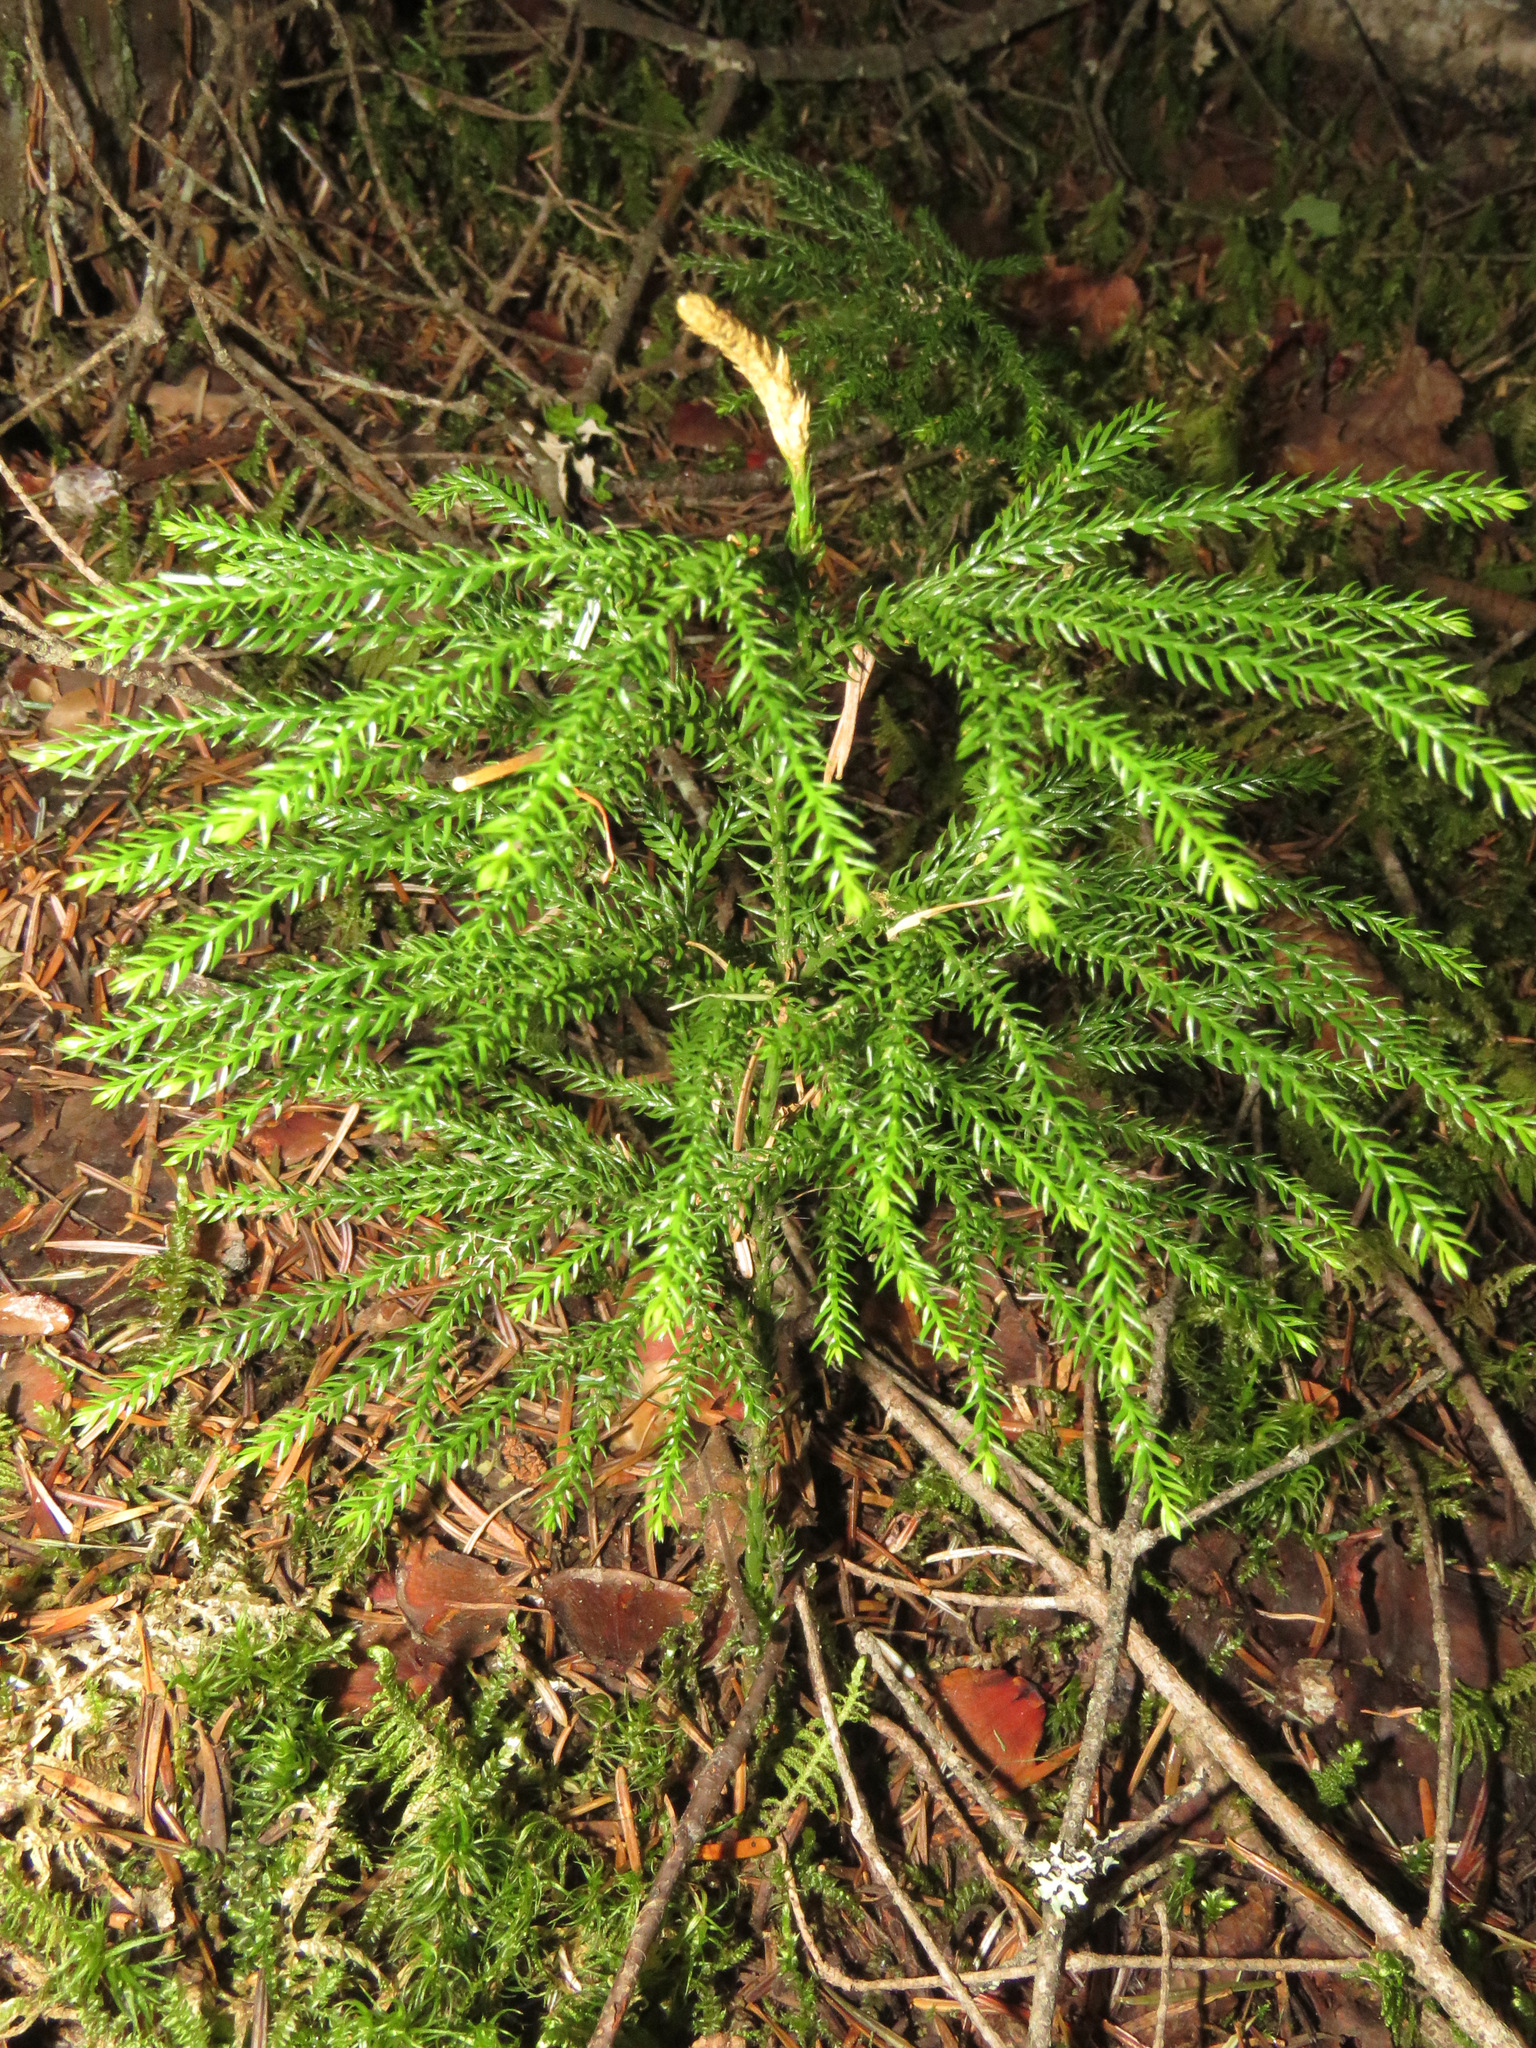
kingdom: Plantae
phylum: Tracheophyta
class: Lycopodiopsida
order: Lycopodiales
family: Lycopodiaceae
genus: Dendrolycopodium
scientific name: Dendrolycopodium dendroideum
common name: Northern tree-clubmoss
